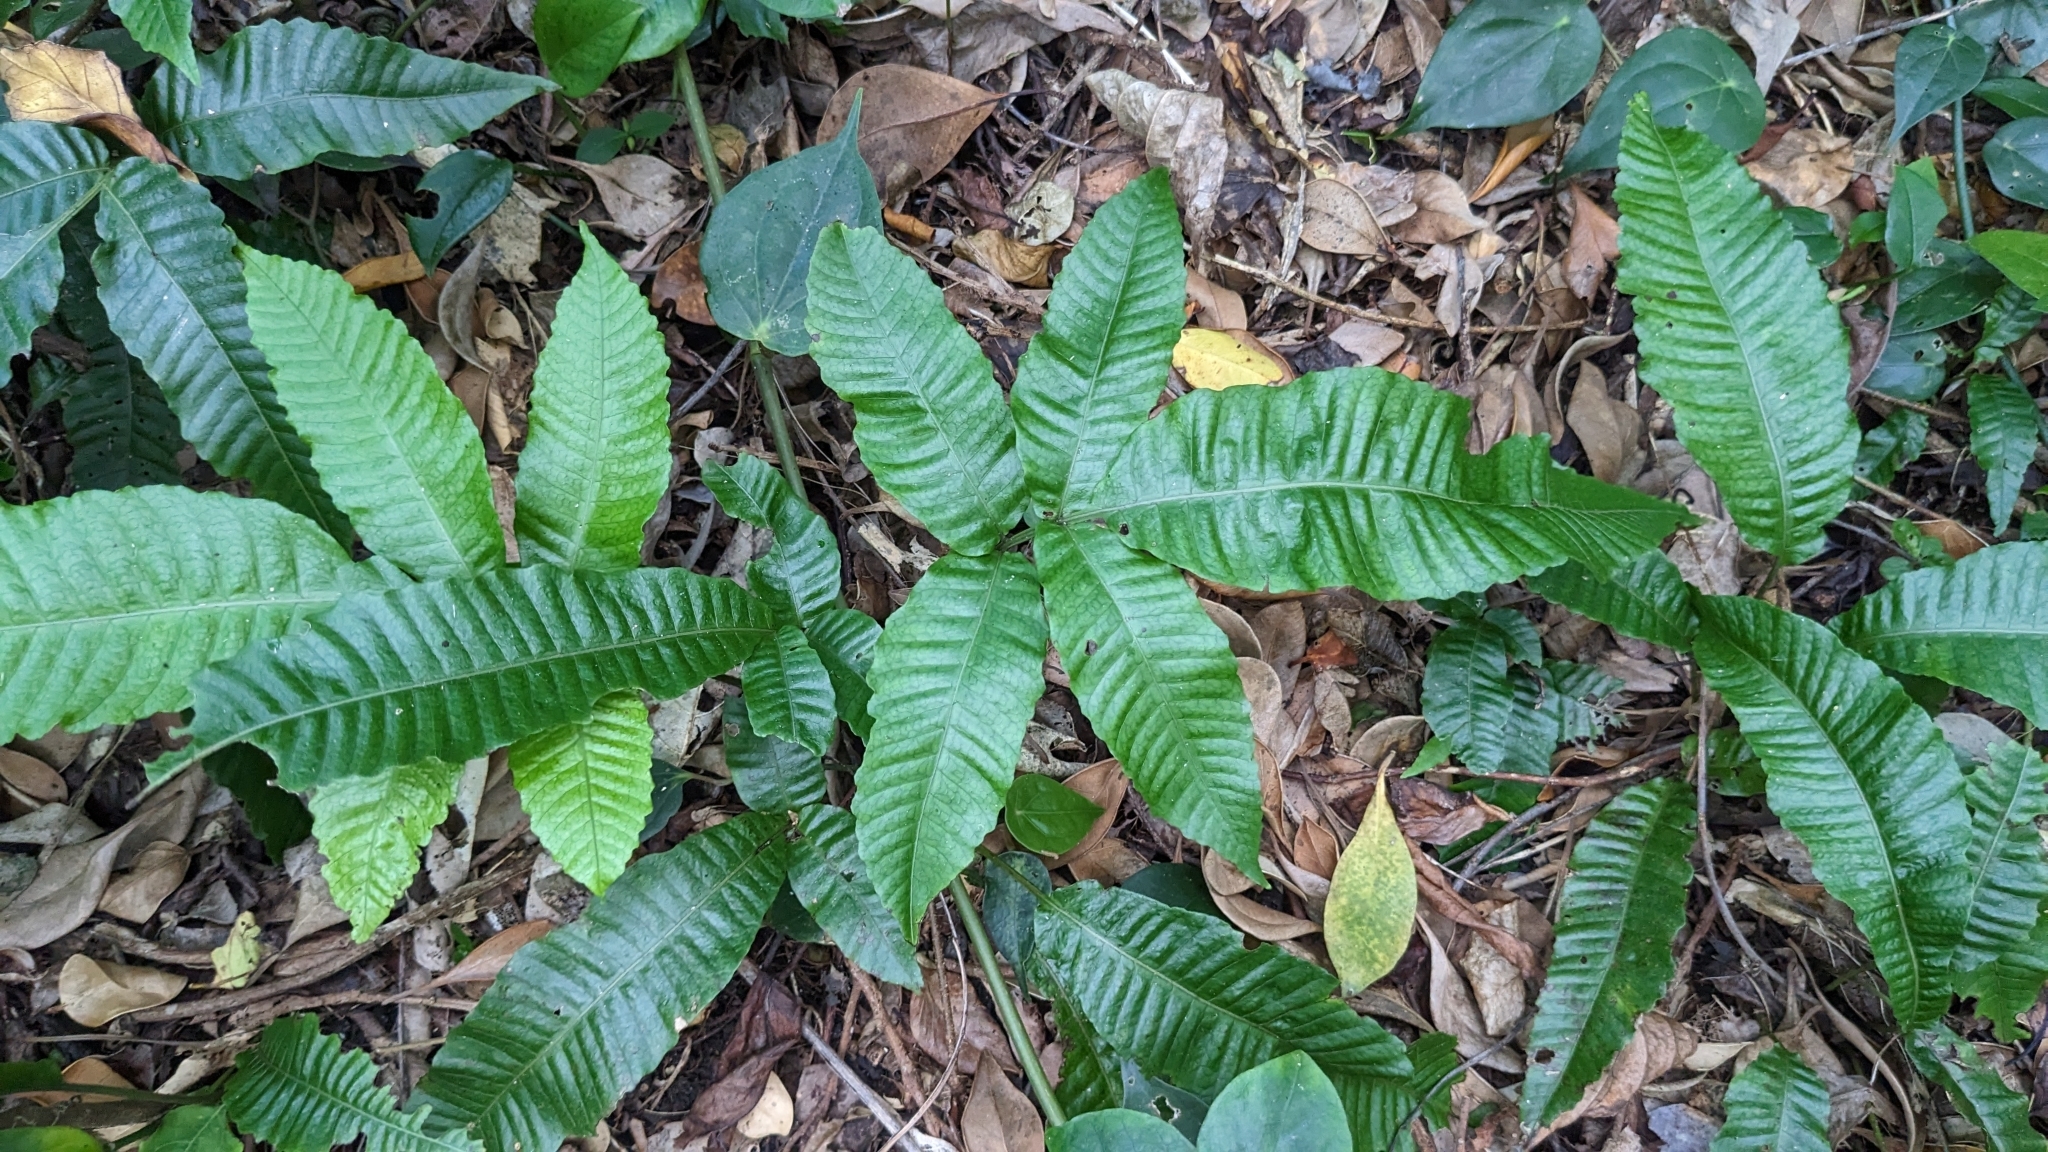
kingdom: Plantae
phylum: Tracheophyta
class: Polypodiopsida
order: Polypodiales
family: Dryopteridaceae
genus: Bolbitis
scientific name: Bolbitis heteroclita
